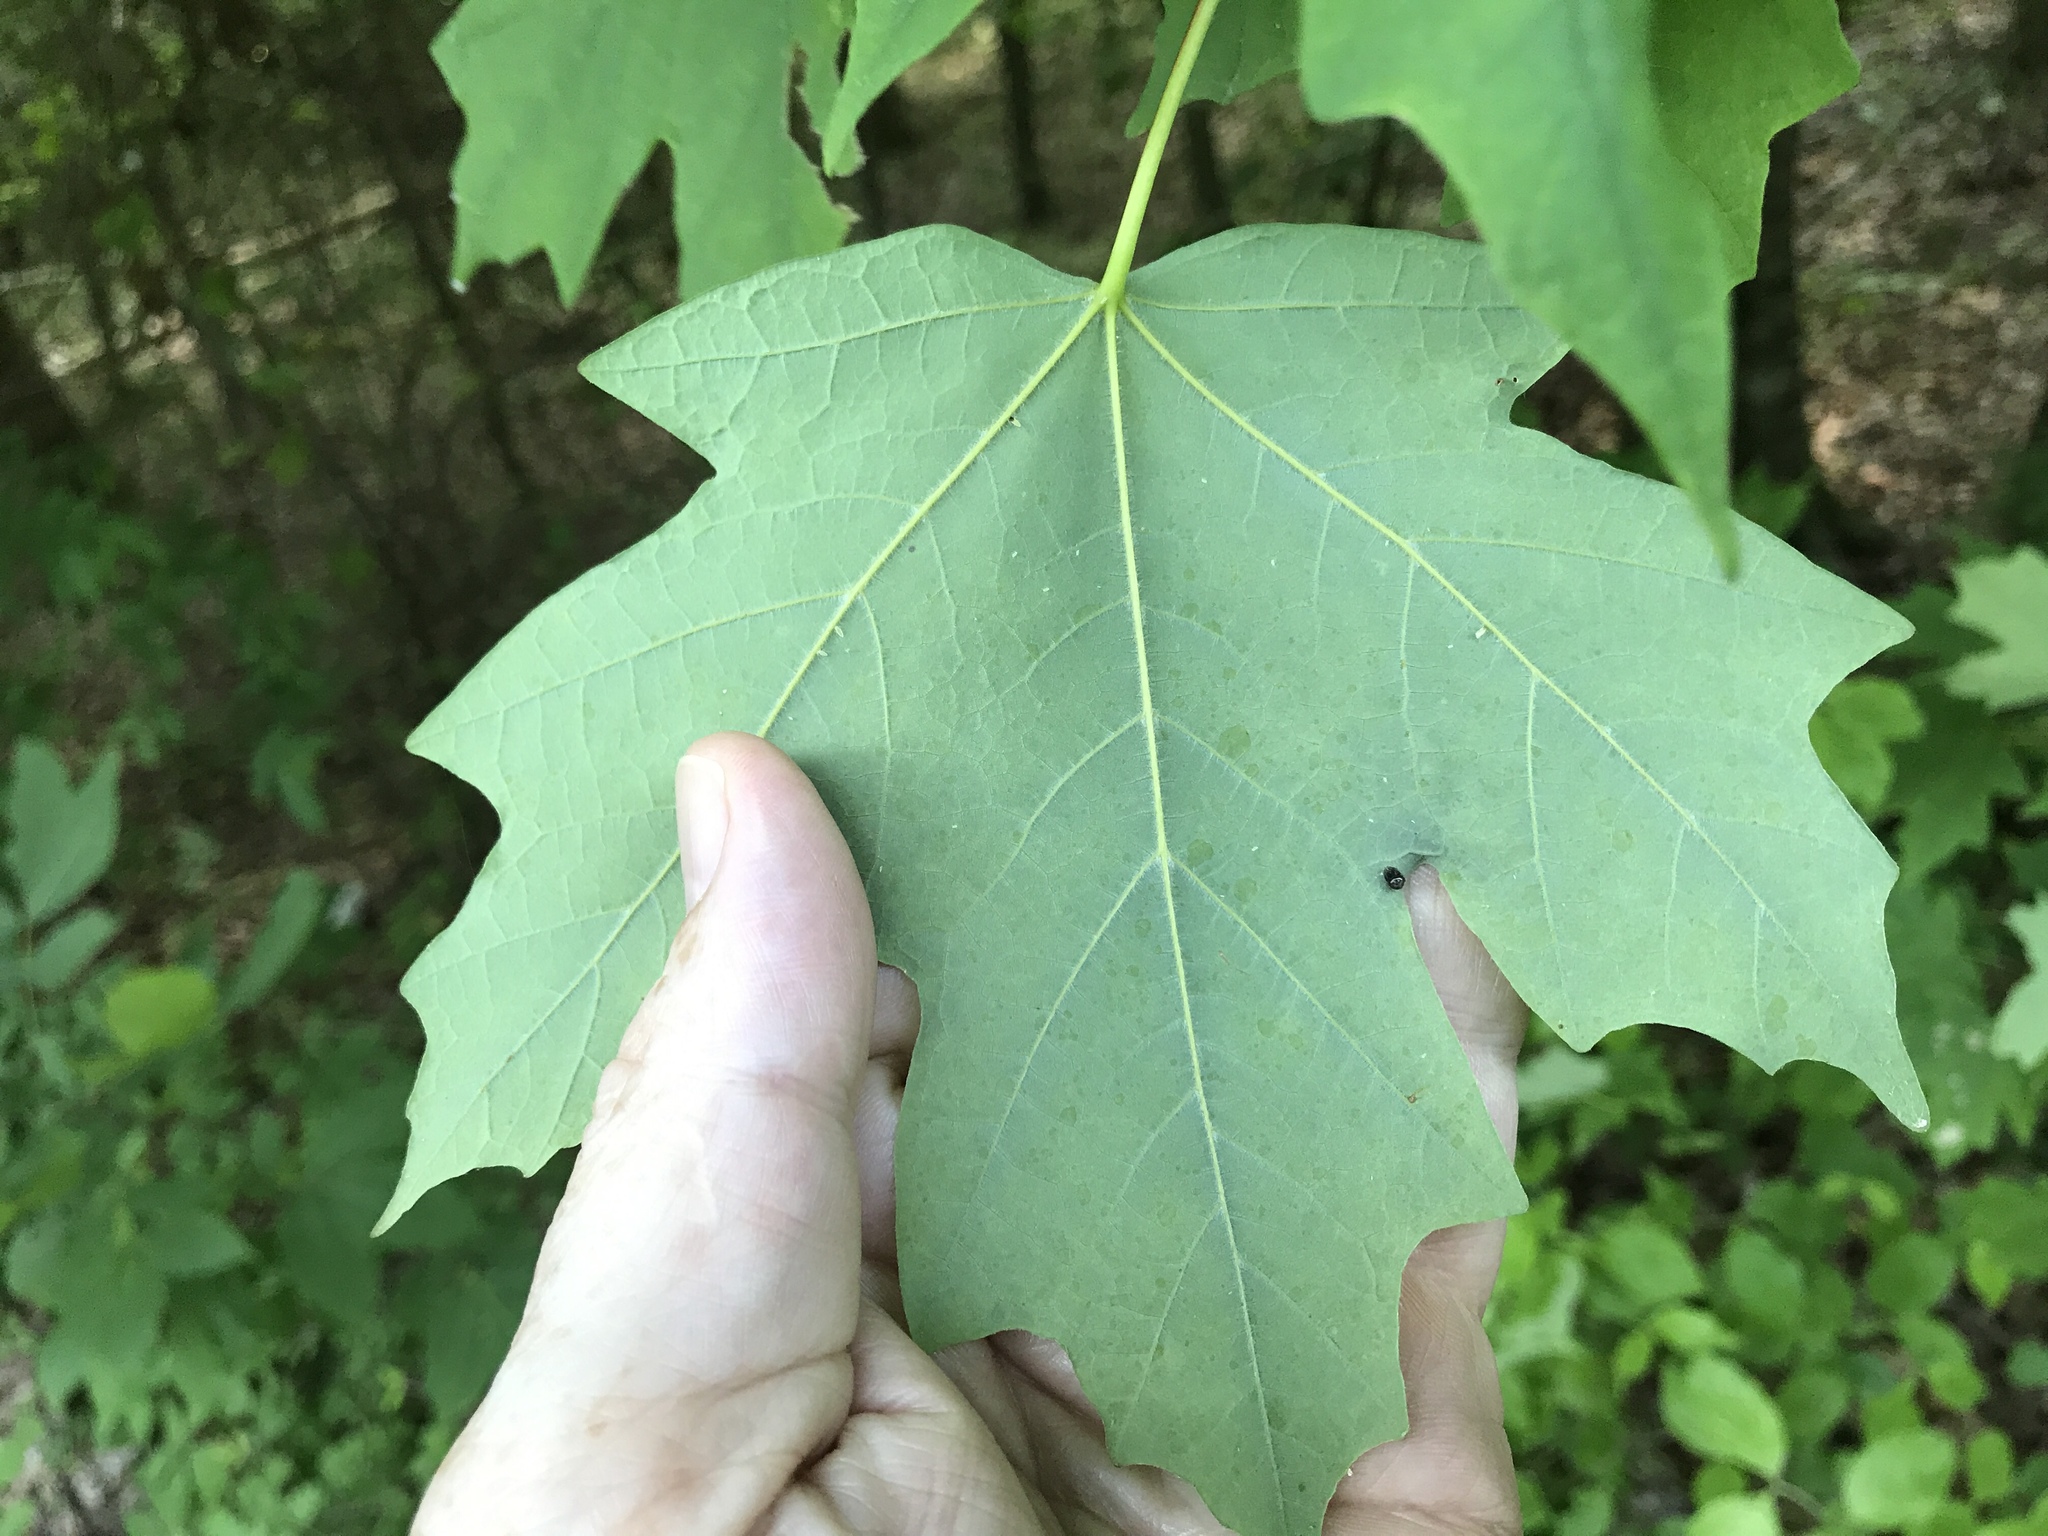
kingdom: Plantae
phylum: Tracheophyta
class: Magnoliopsida
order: Sapindales
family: Sapindaceae
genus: Acer
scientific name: Acer floridanum
